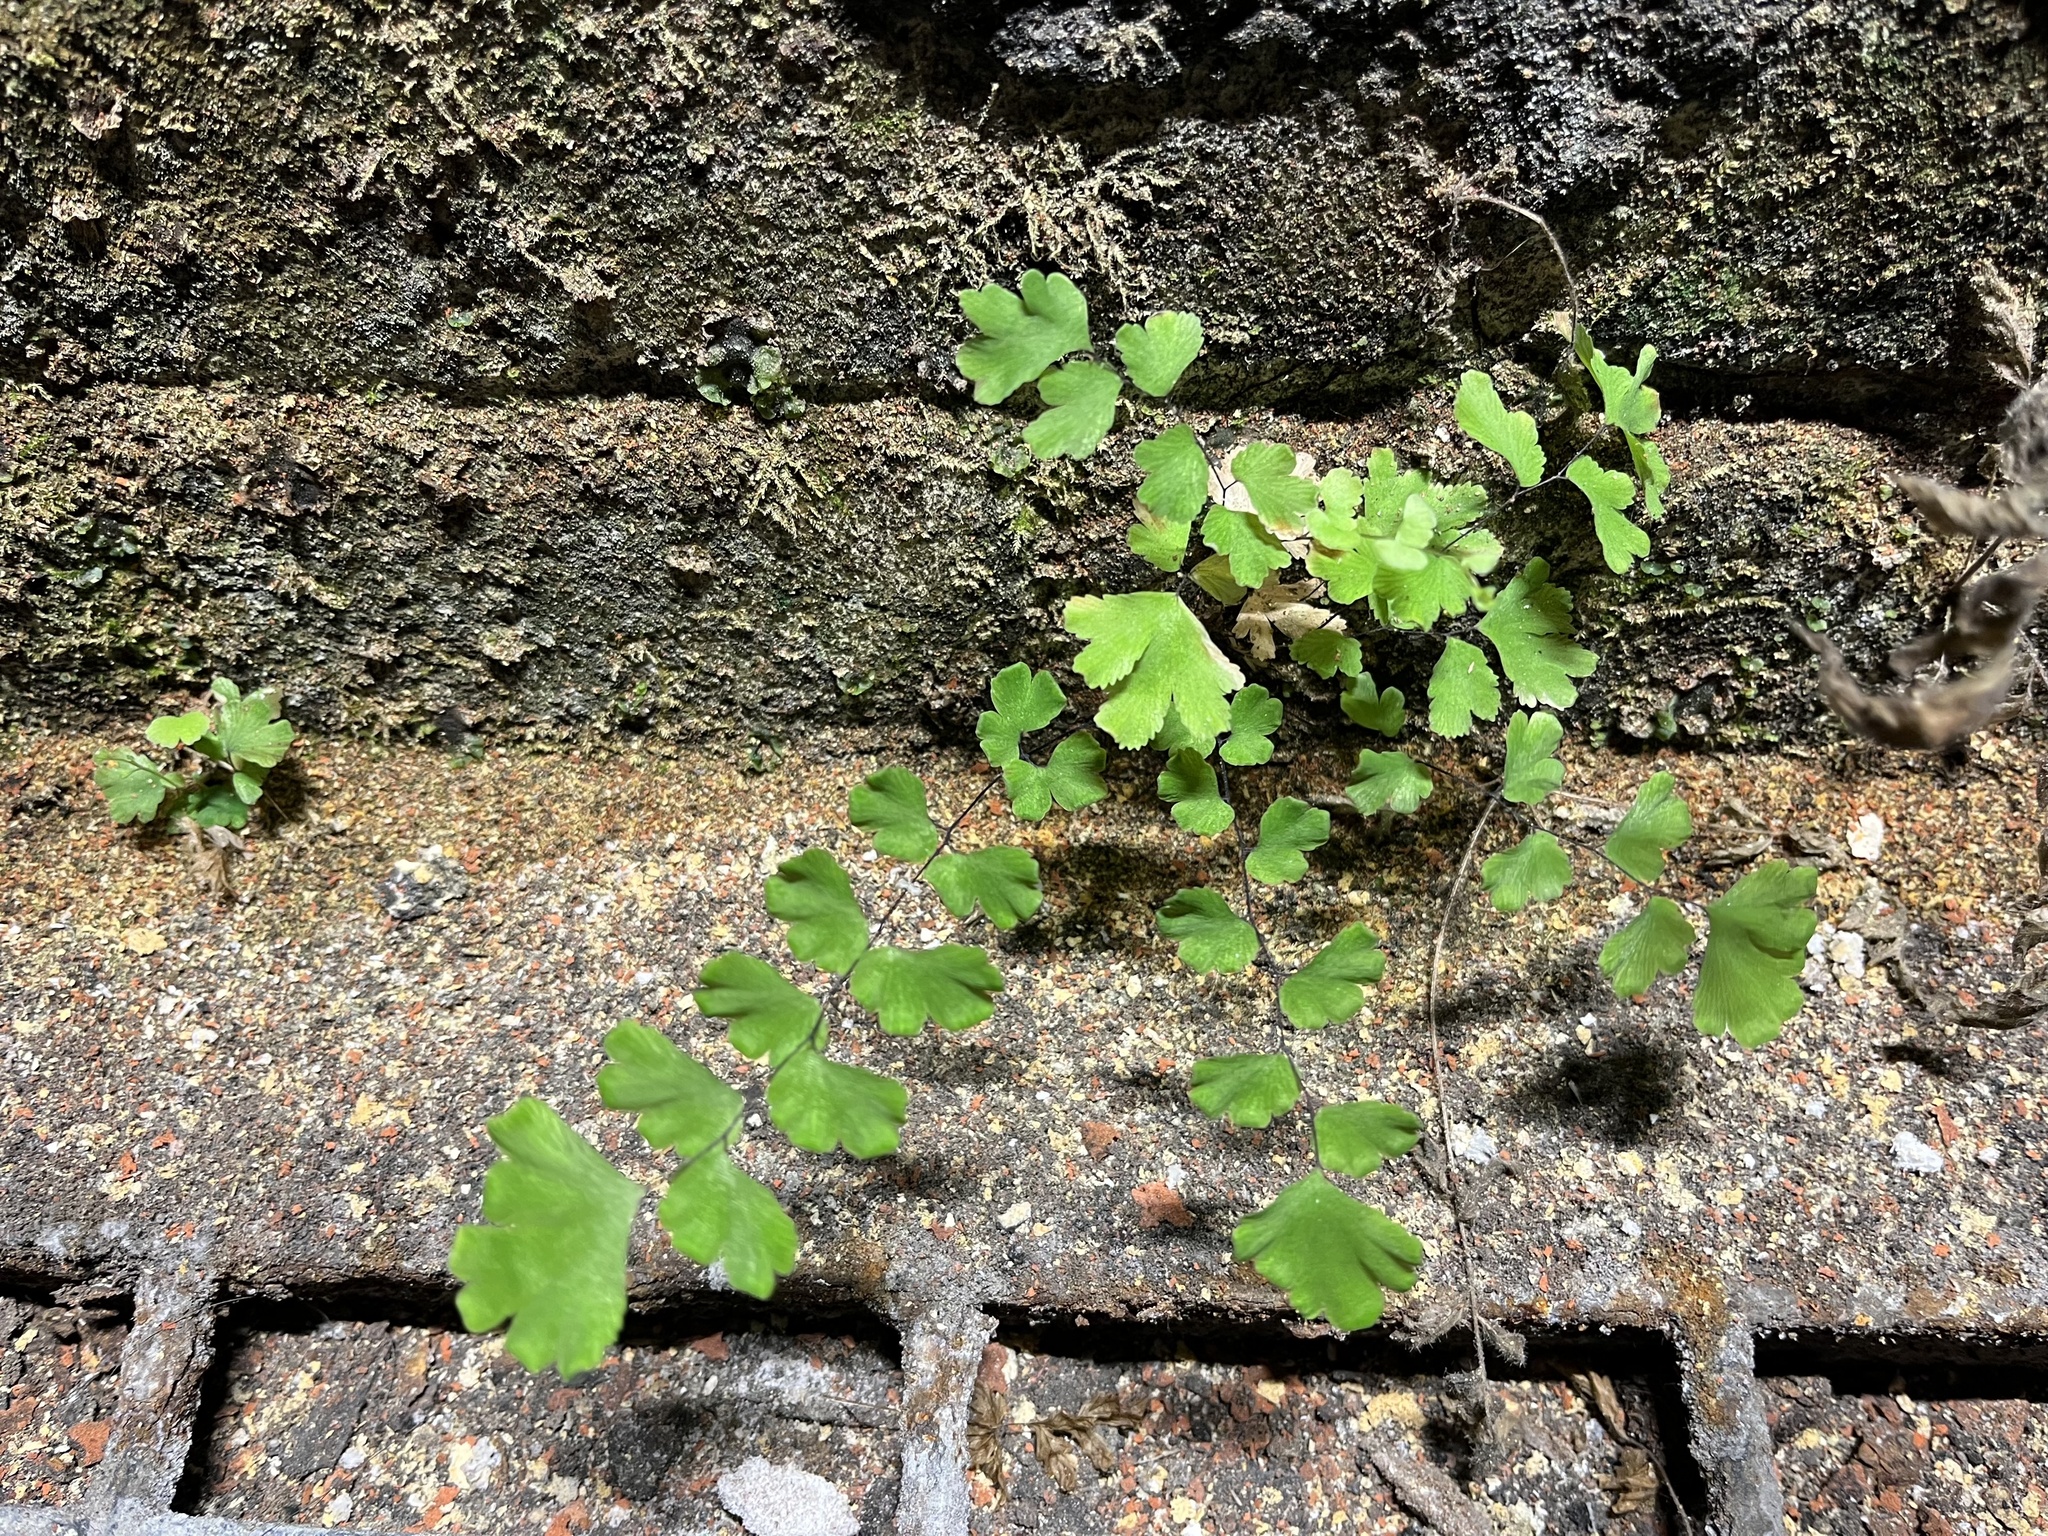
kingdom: Plantae
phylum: Tracheophyta
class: Polypodiopsida
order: Polypodiales
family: Pteridaceae
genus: Adiantum
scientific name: Adiantum capillus-veneris
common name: Maidenhair fern
